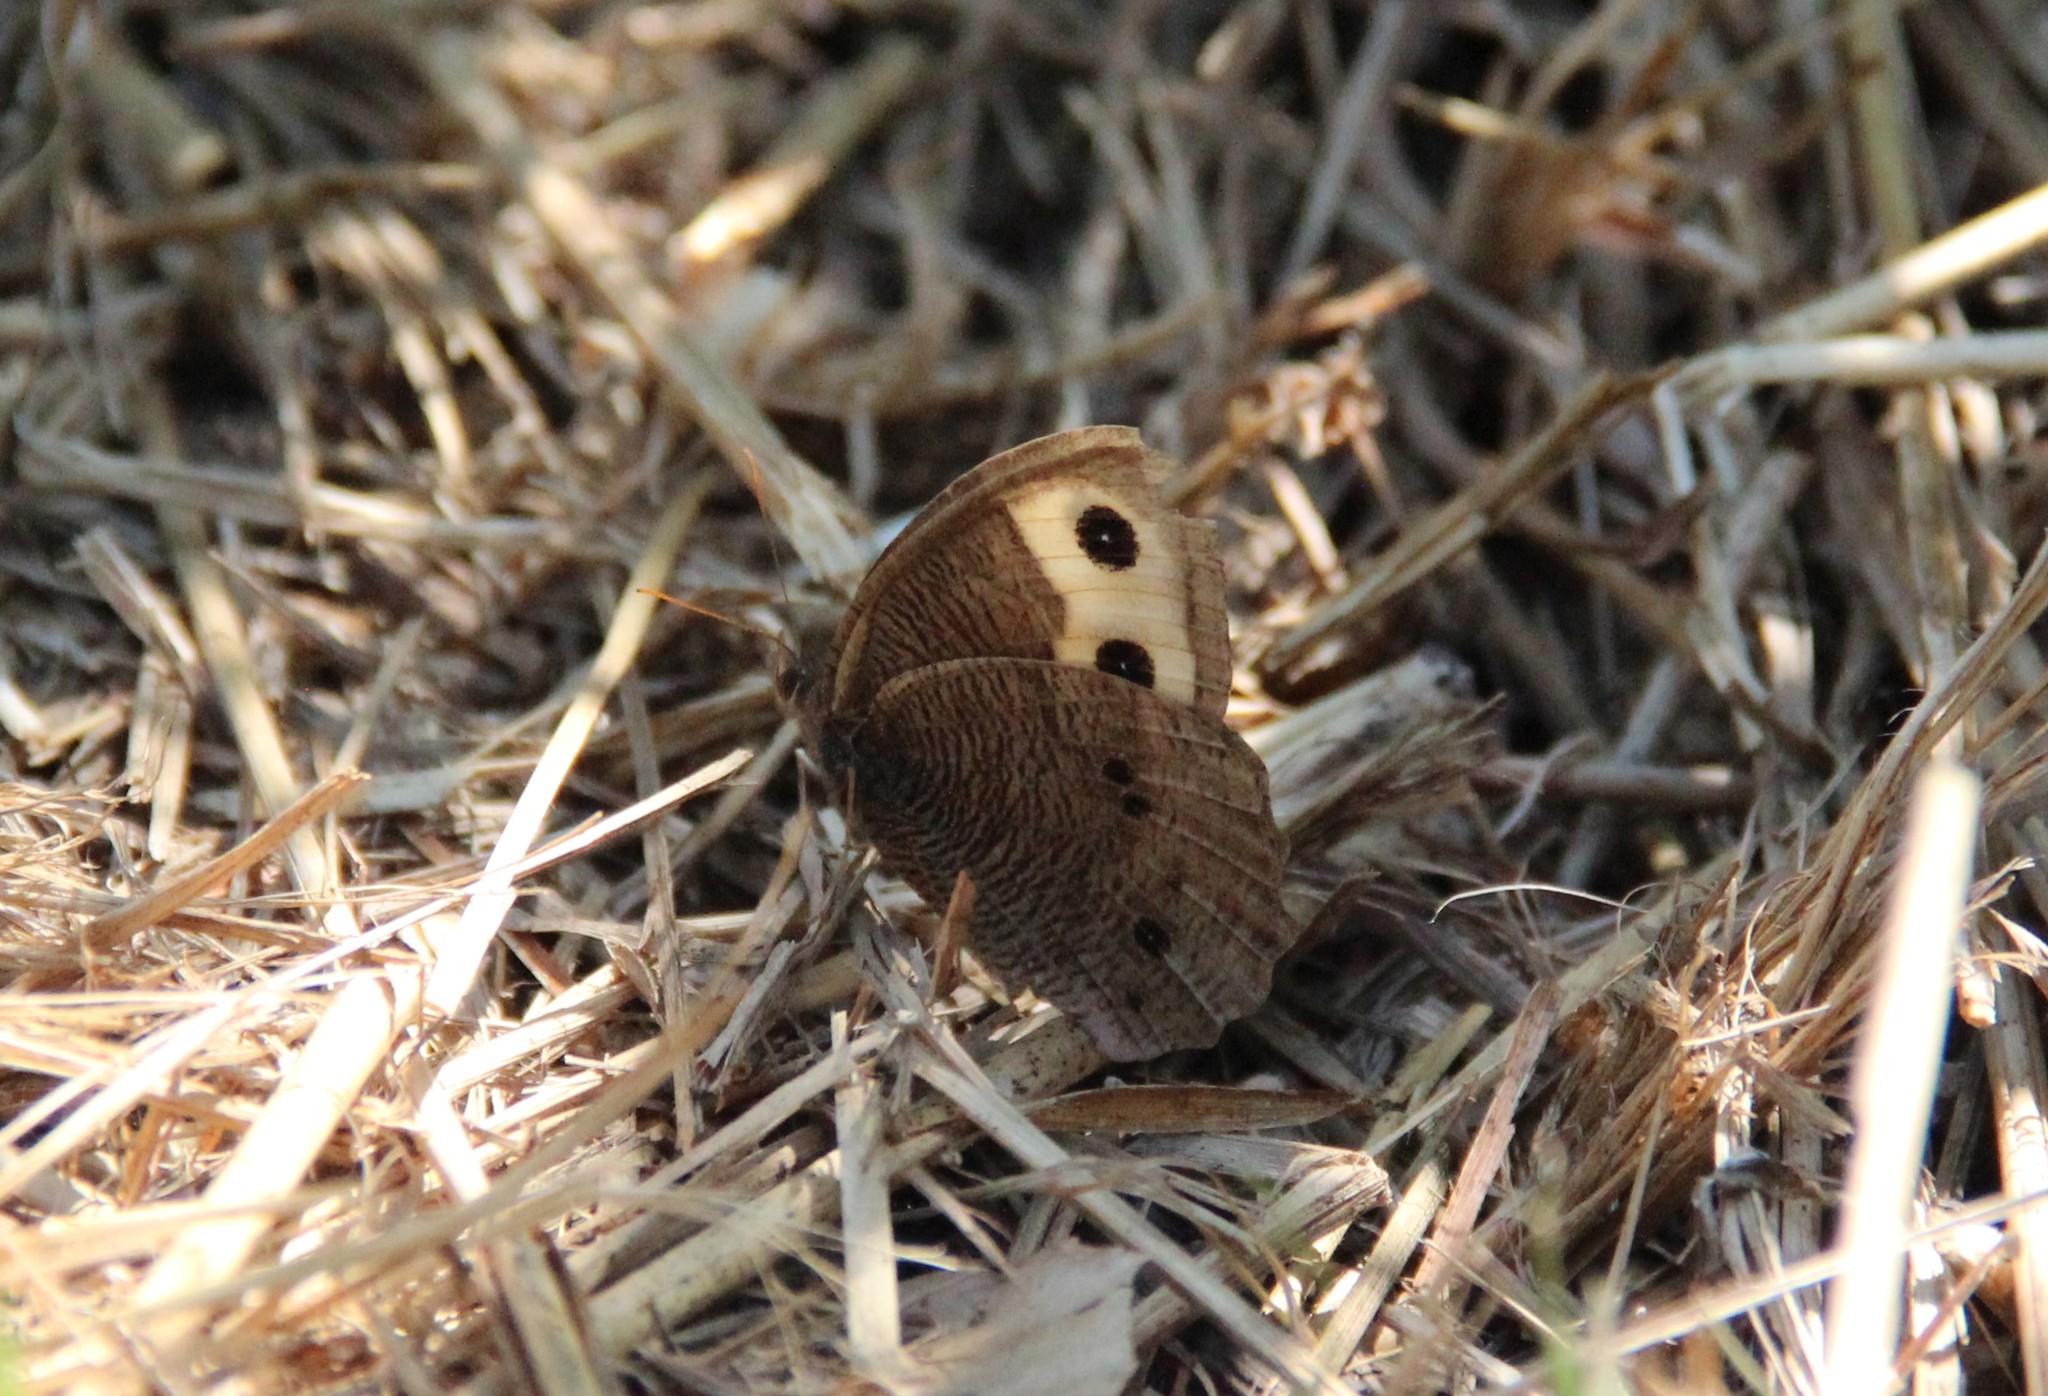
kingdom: Animalia
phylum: Arthropoda
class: Insecta
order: Lepidoptera
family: Nymphalidae
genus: Cercyonis
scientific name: Cercyonis pegala
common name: Common wood-nymph
